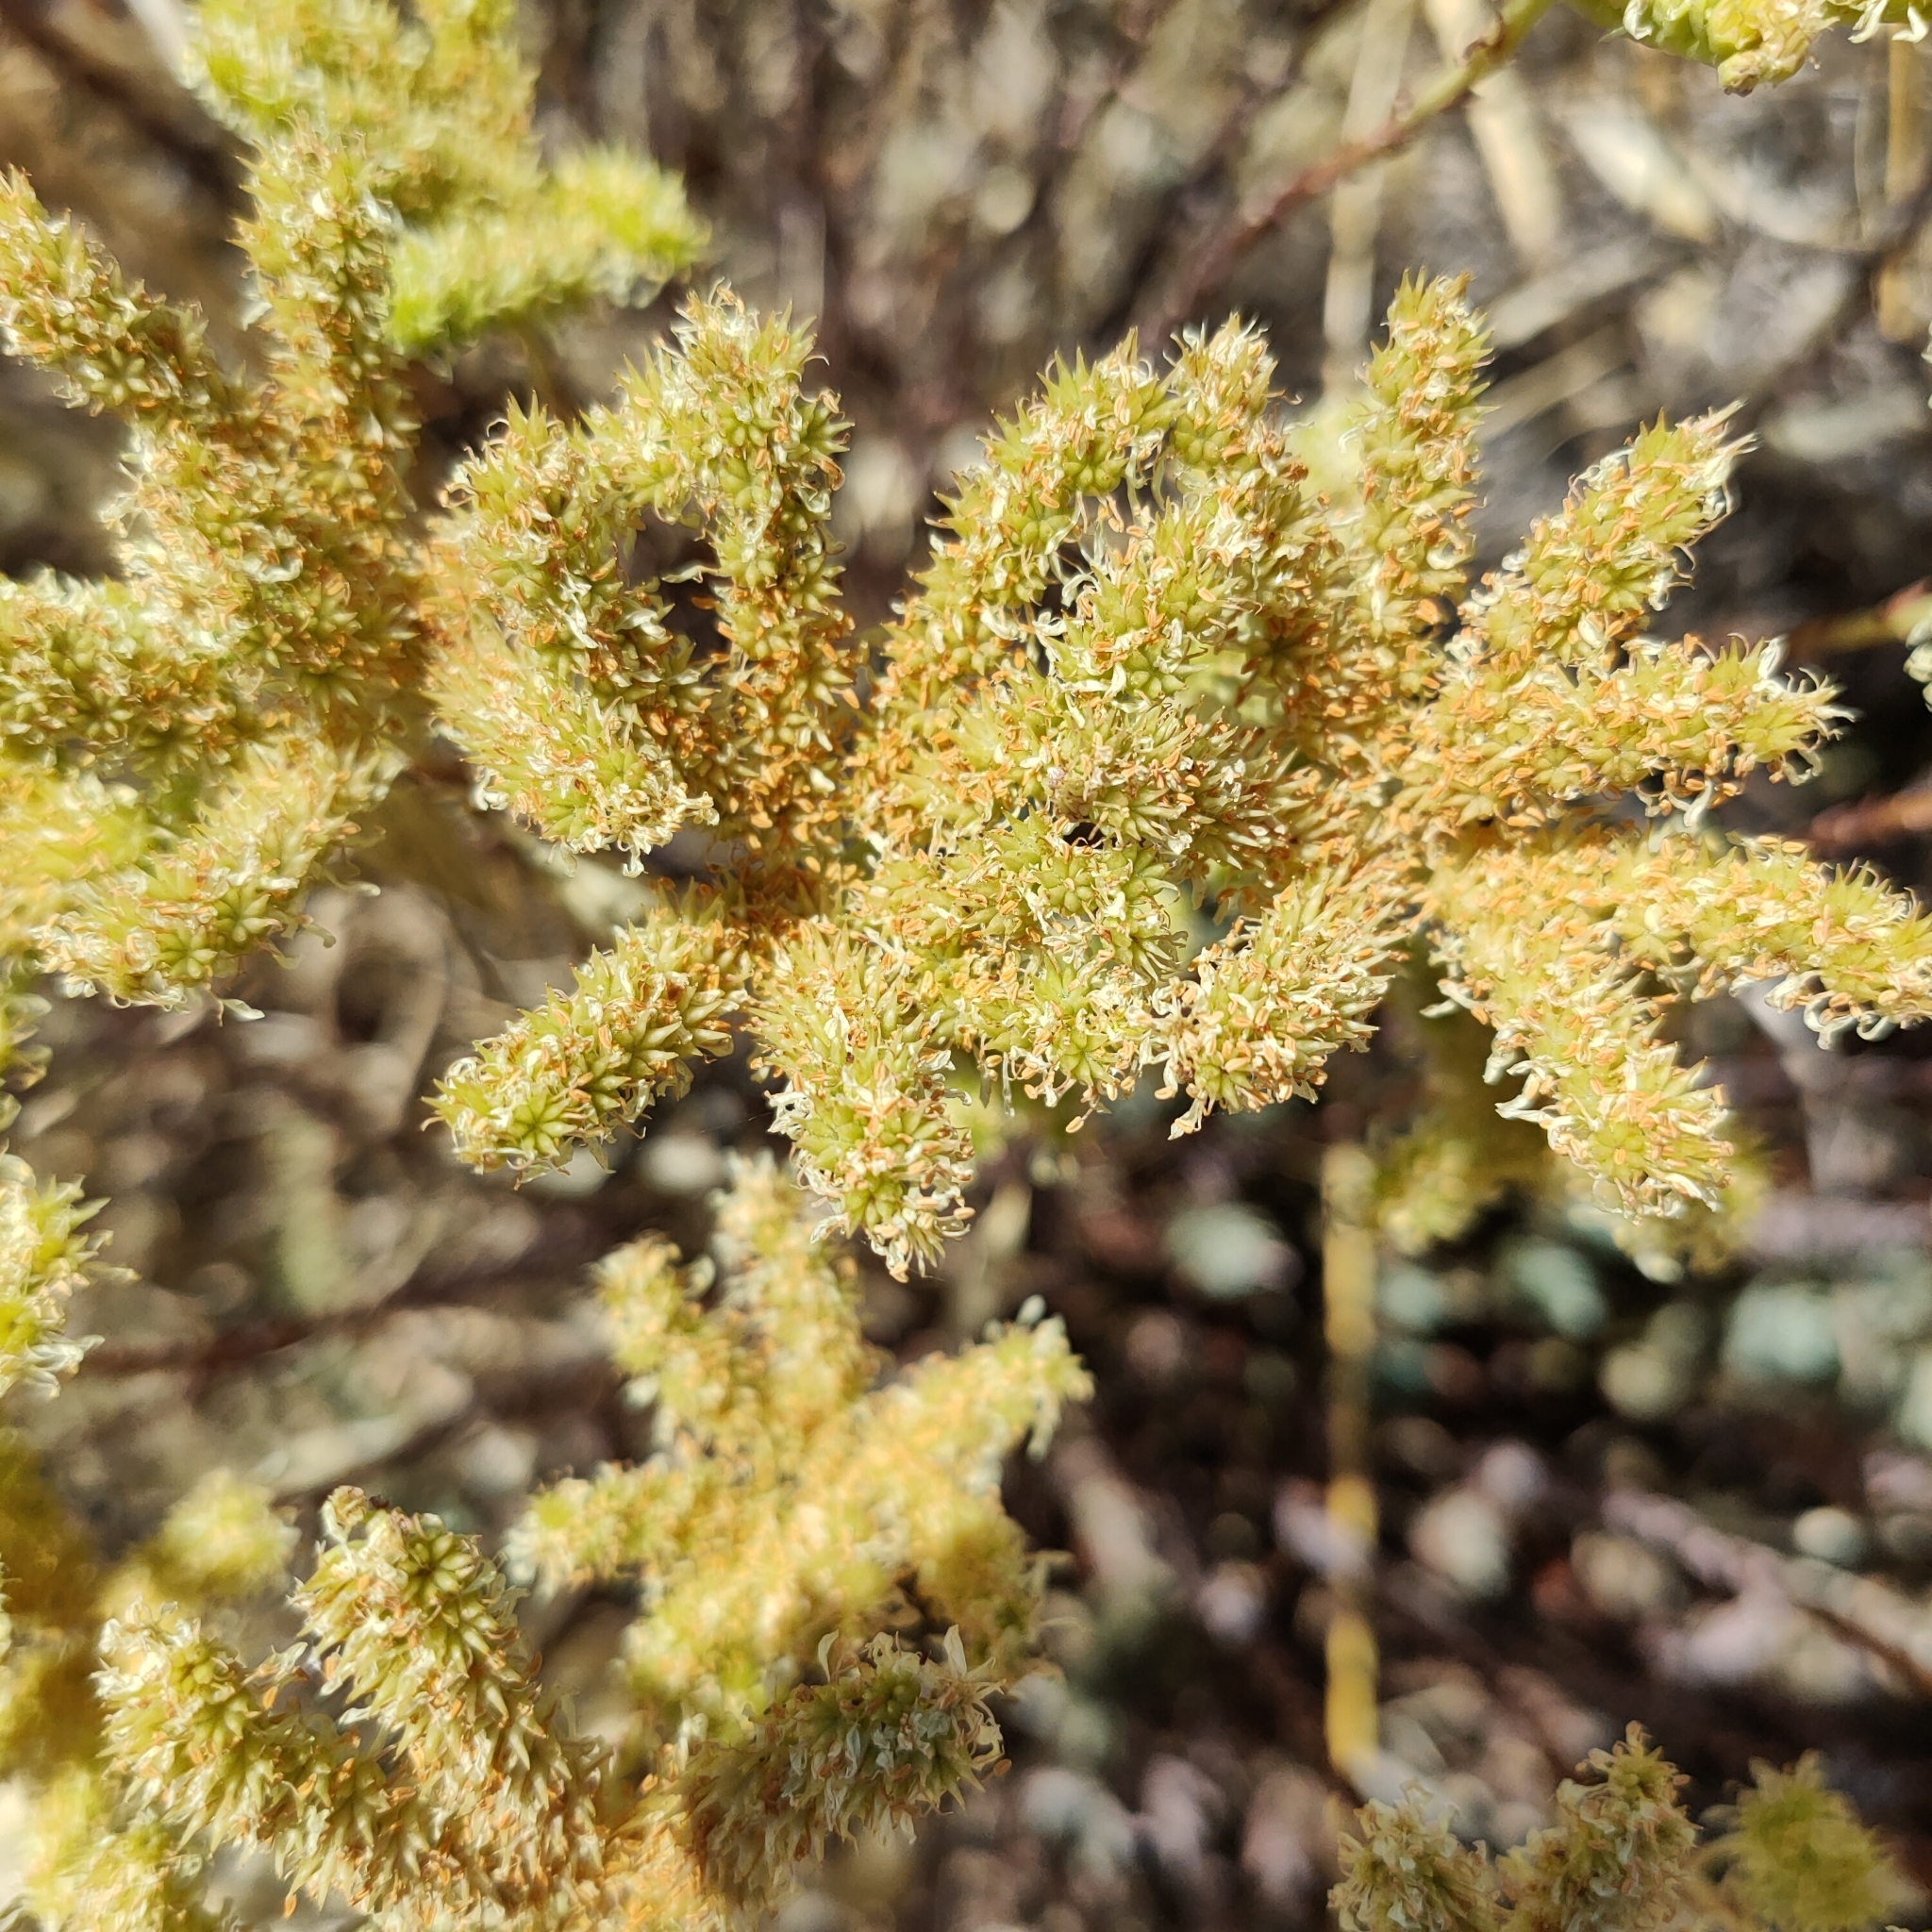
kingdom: Plantae
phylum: Tracheophyta
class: Magnoliopsida
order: Saxifragales
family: Crassulaceae
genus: Petrosedum
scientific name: Petrosedum sediforme
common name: Pale stonecrop
